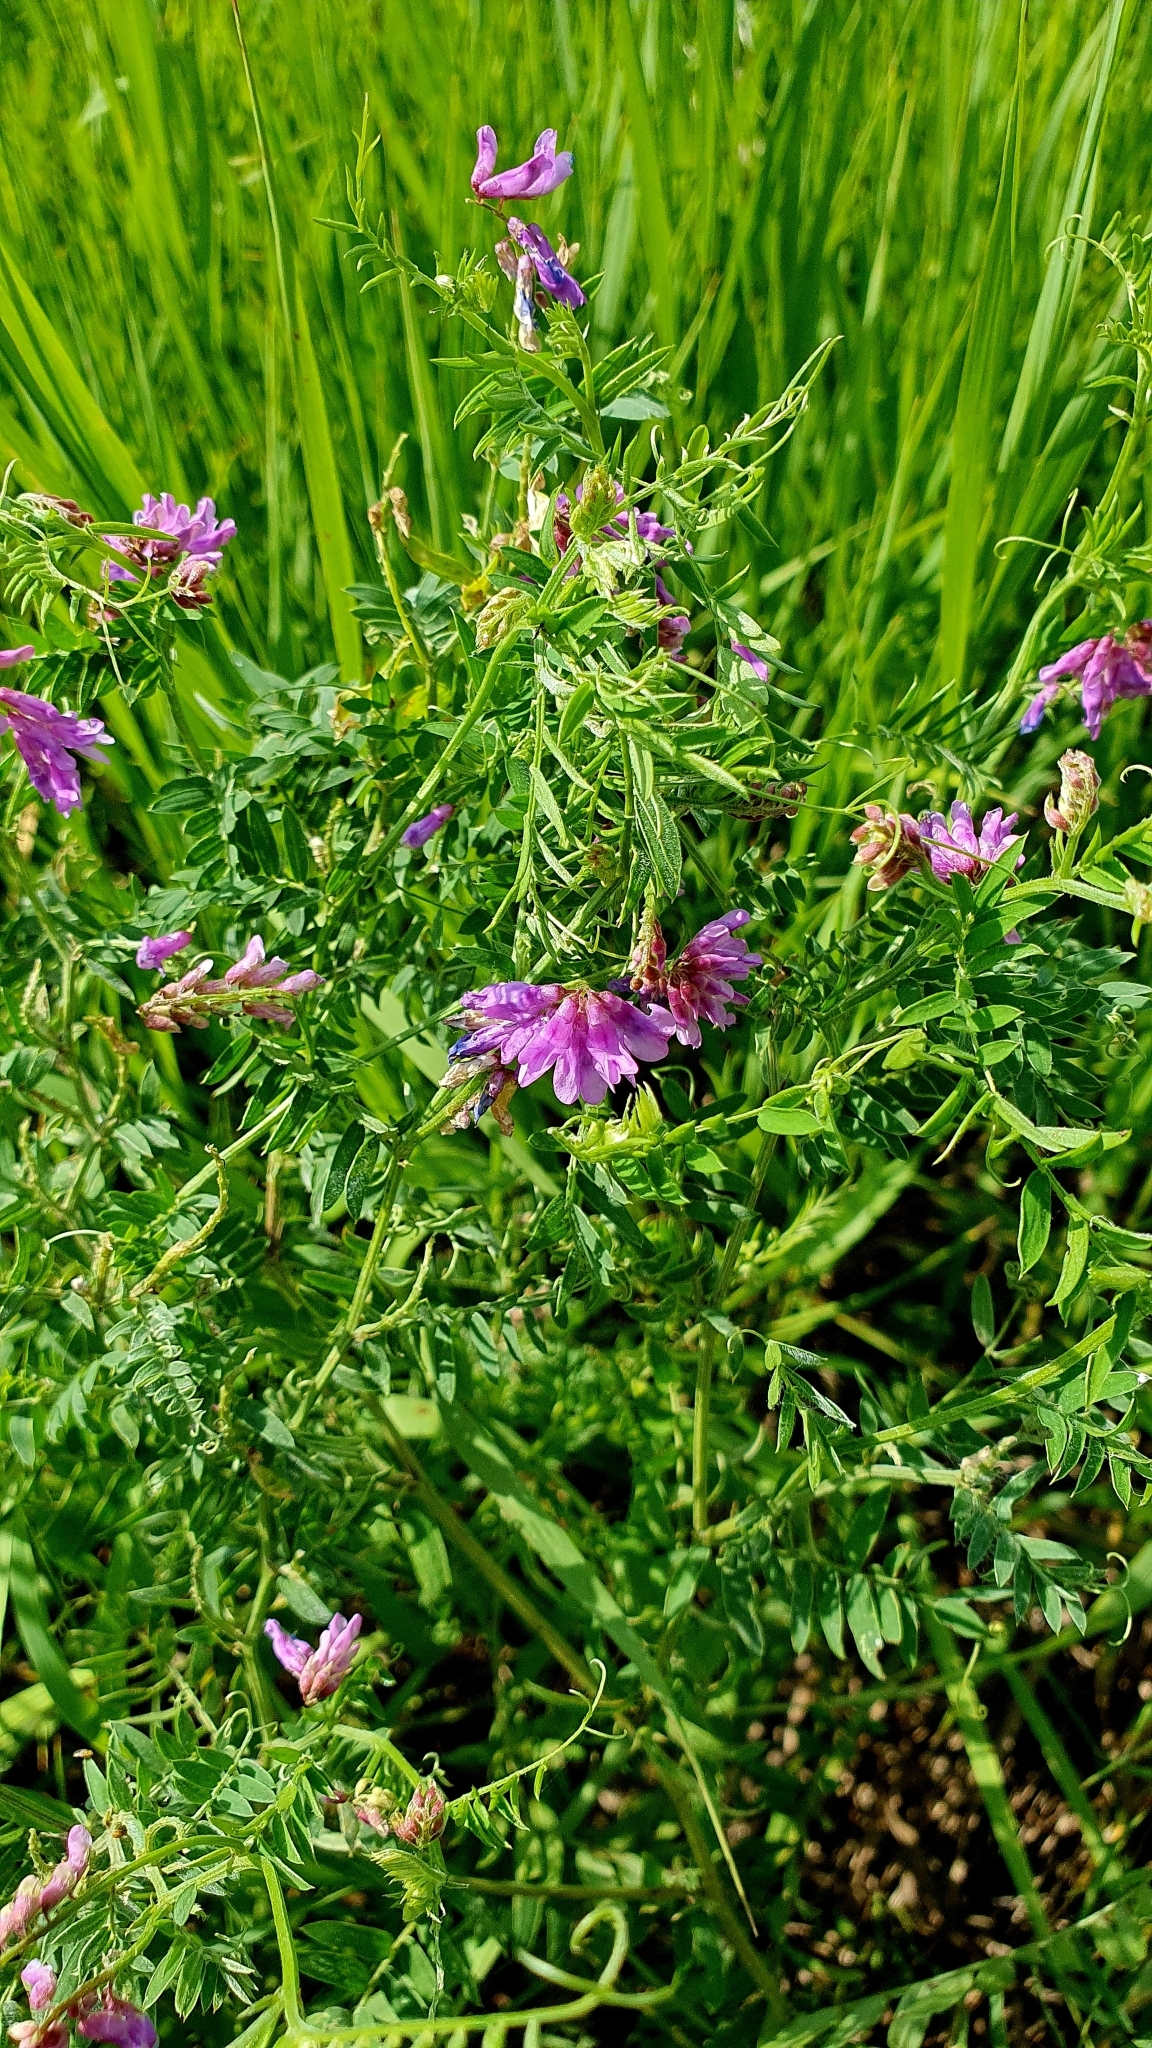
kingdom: Plantae
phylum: Tracheophyta
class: Magnoliopsida
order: Fabales
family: Fabaceae
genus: Vicia
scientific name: Vicia cracca
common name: Bird vetch
